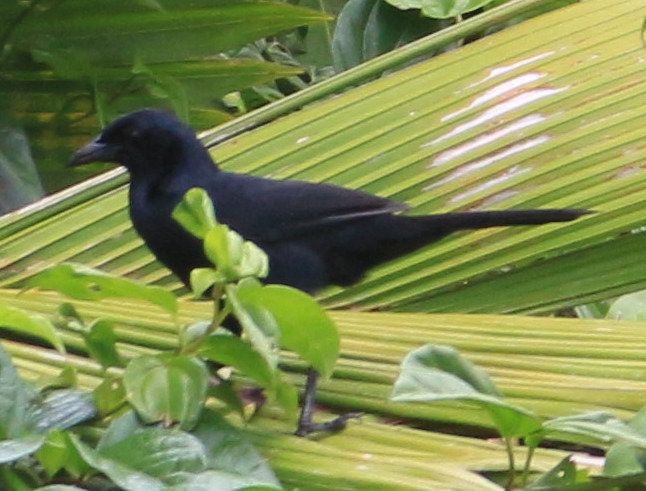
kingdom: Animalia
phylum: Chordata
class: Aves
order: Passeriformes
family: Icteridae
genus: Dives
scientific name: Dives dives
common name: Melodious blackbird
